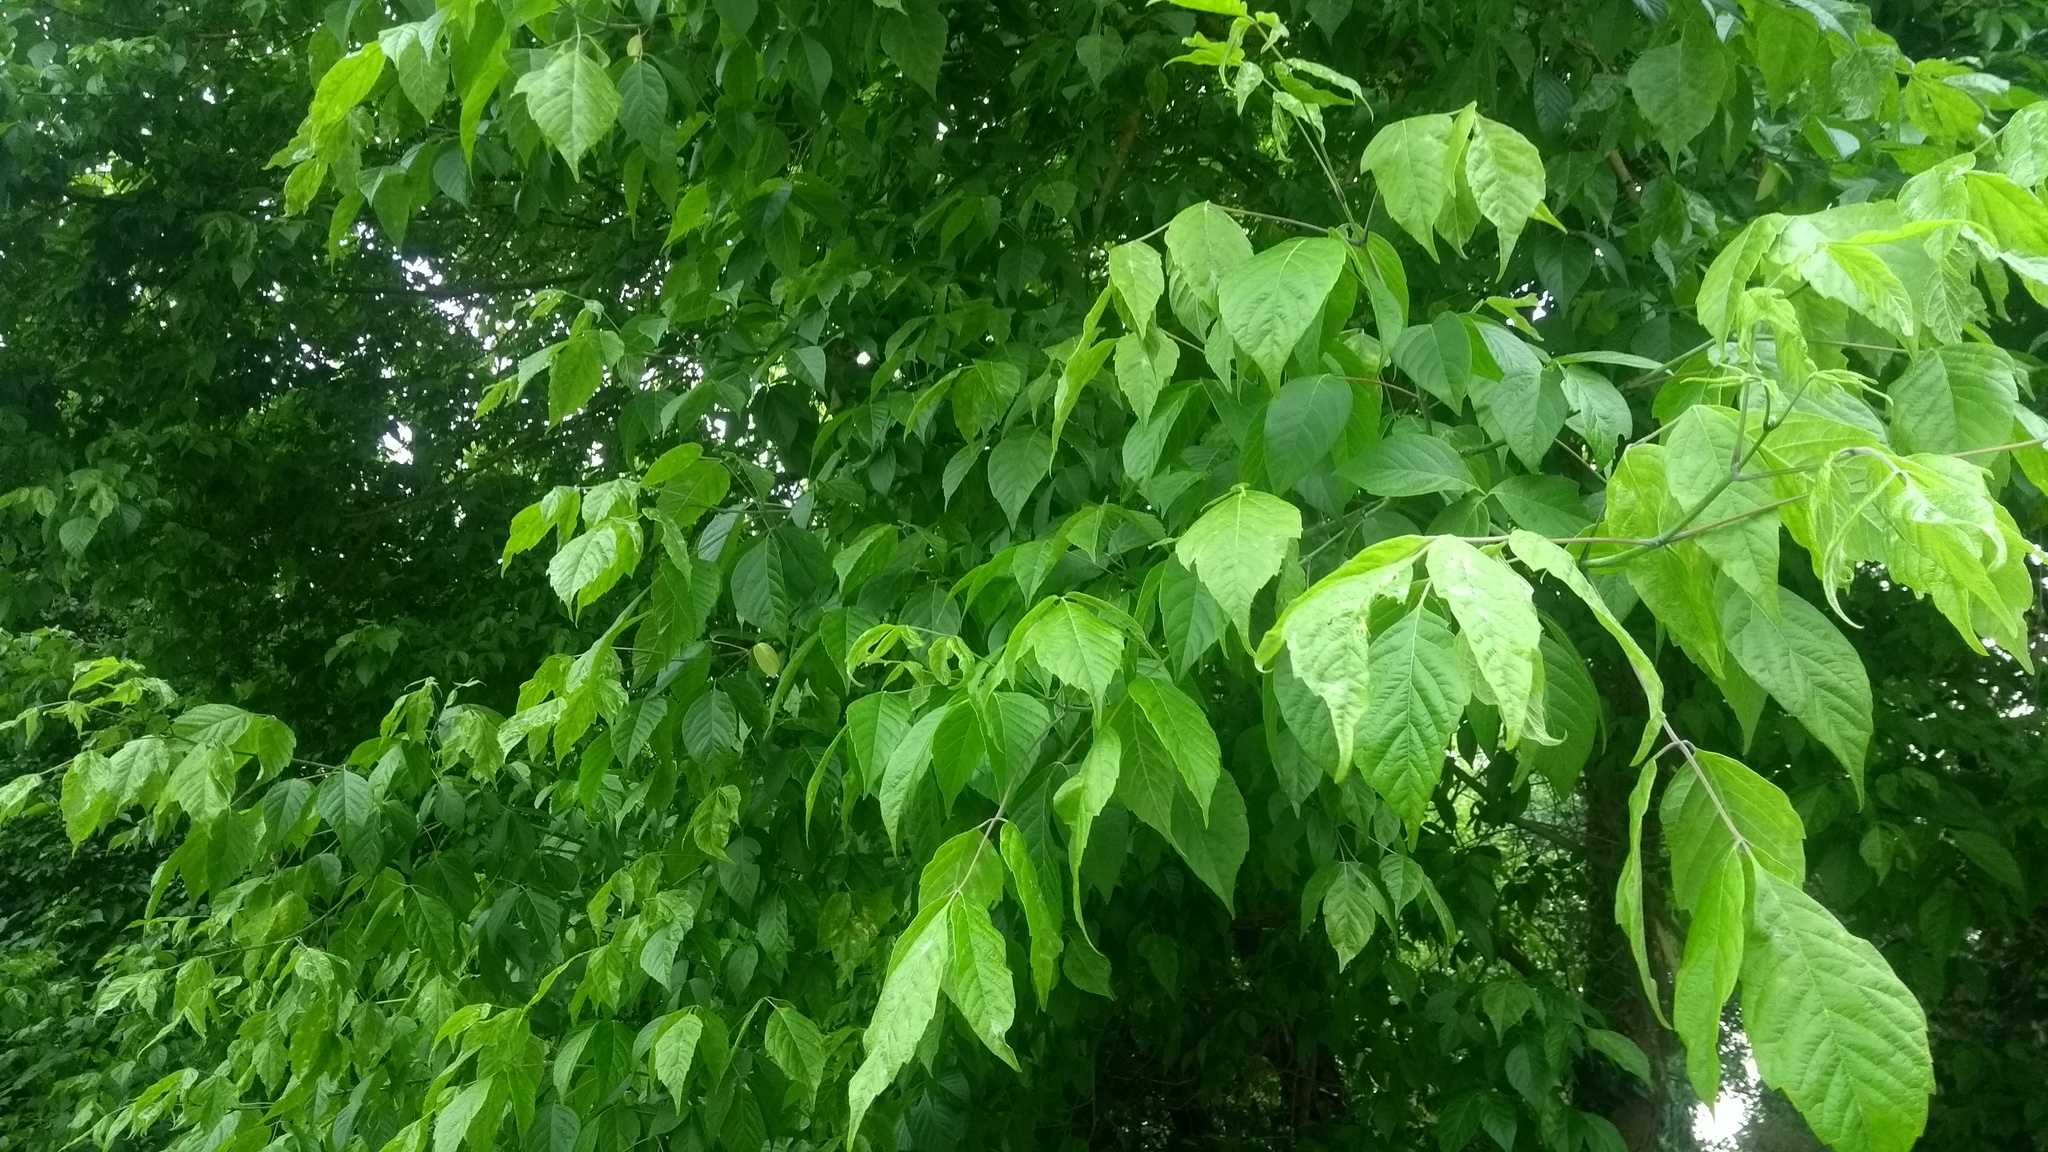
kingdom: Plantae
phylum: Tracheophyta
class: Magnoliopsida
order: Sapindales
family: Sapindaceae
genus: Acer
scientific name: Acer negundo
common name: Ashleaf maple
